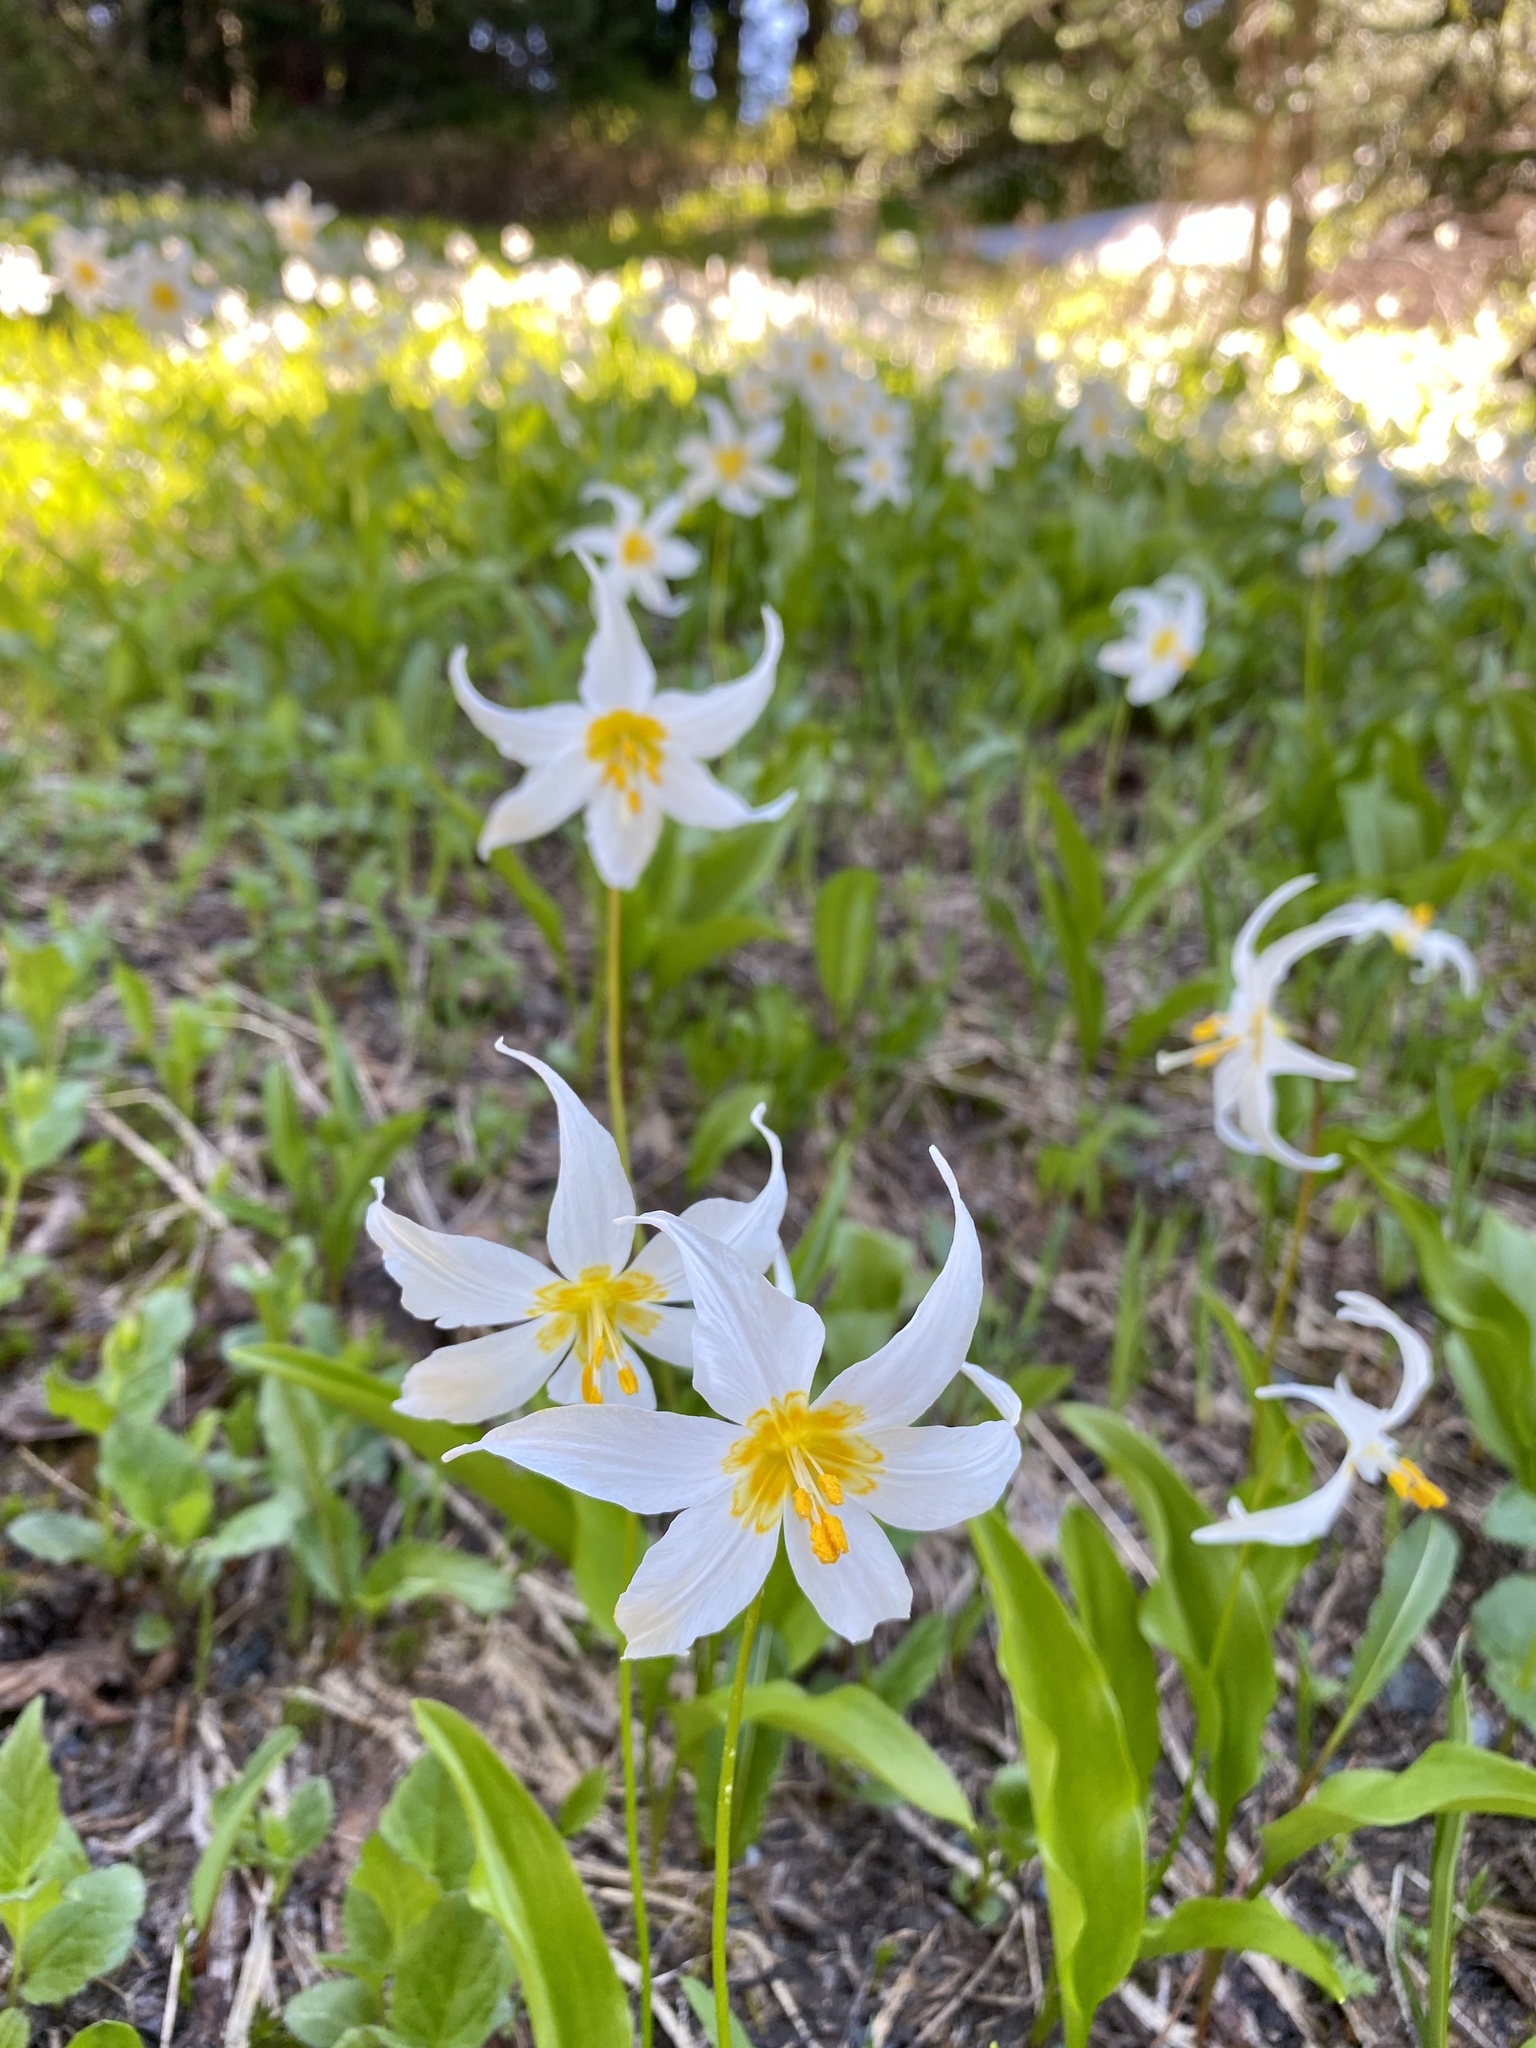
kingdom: Plantae
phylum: Tracheophyta
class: Liliopsida
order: Liliales
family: Liliaceae
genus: Erythronium
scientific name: Erythronium montanum
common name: Avalanche lily
